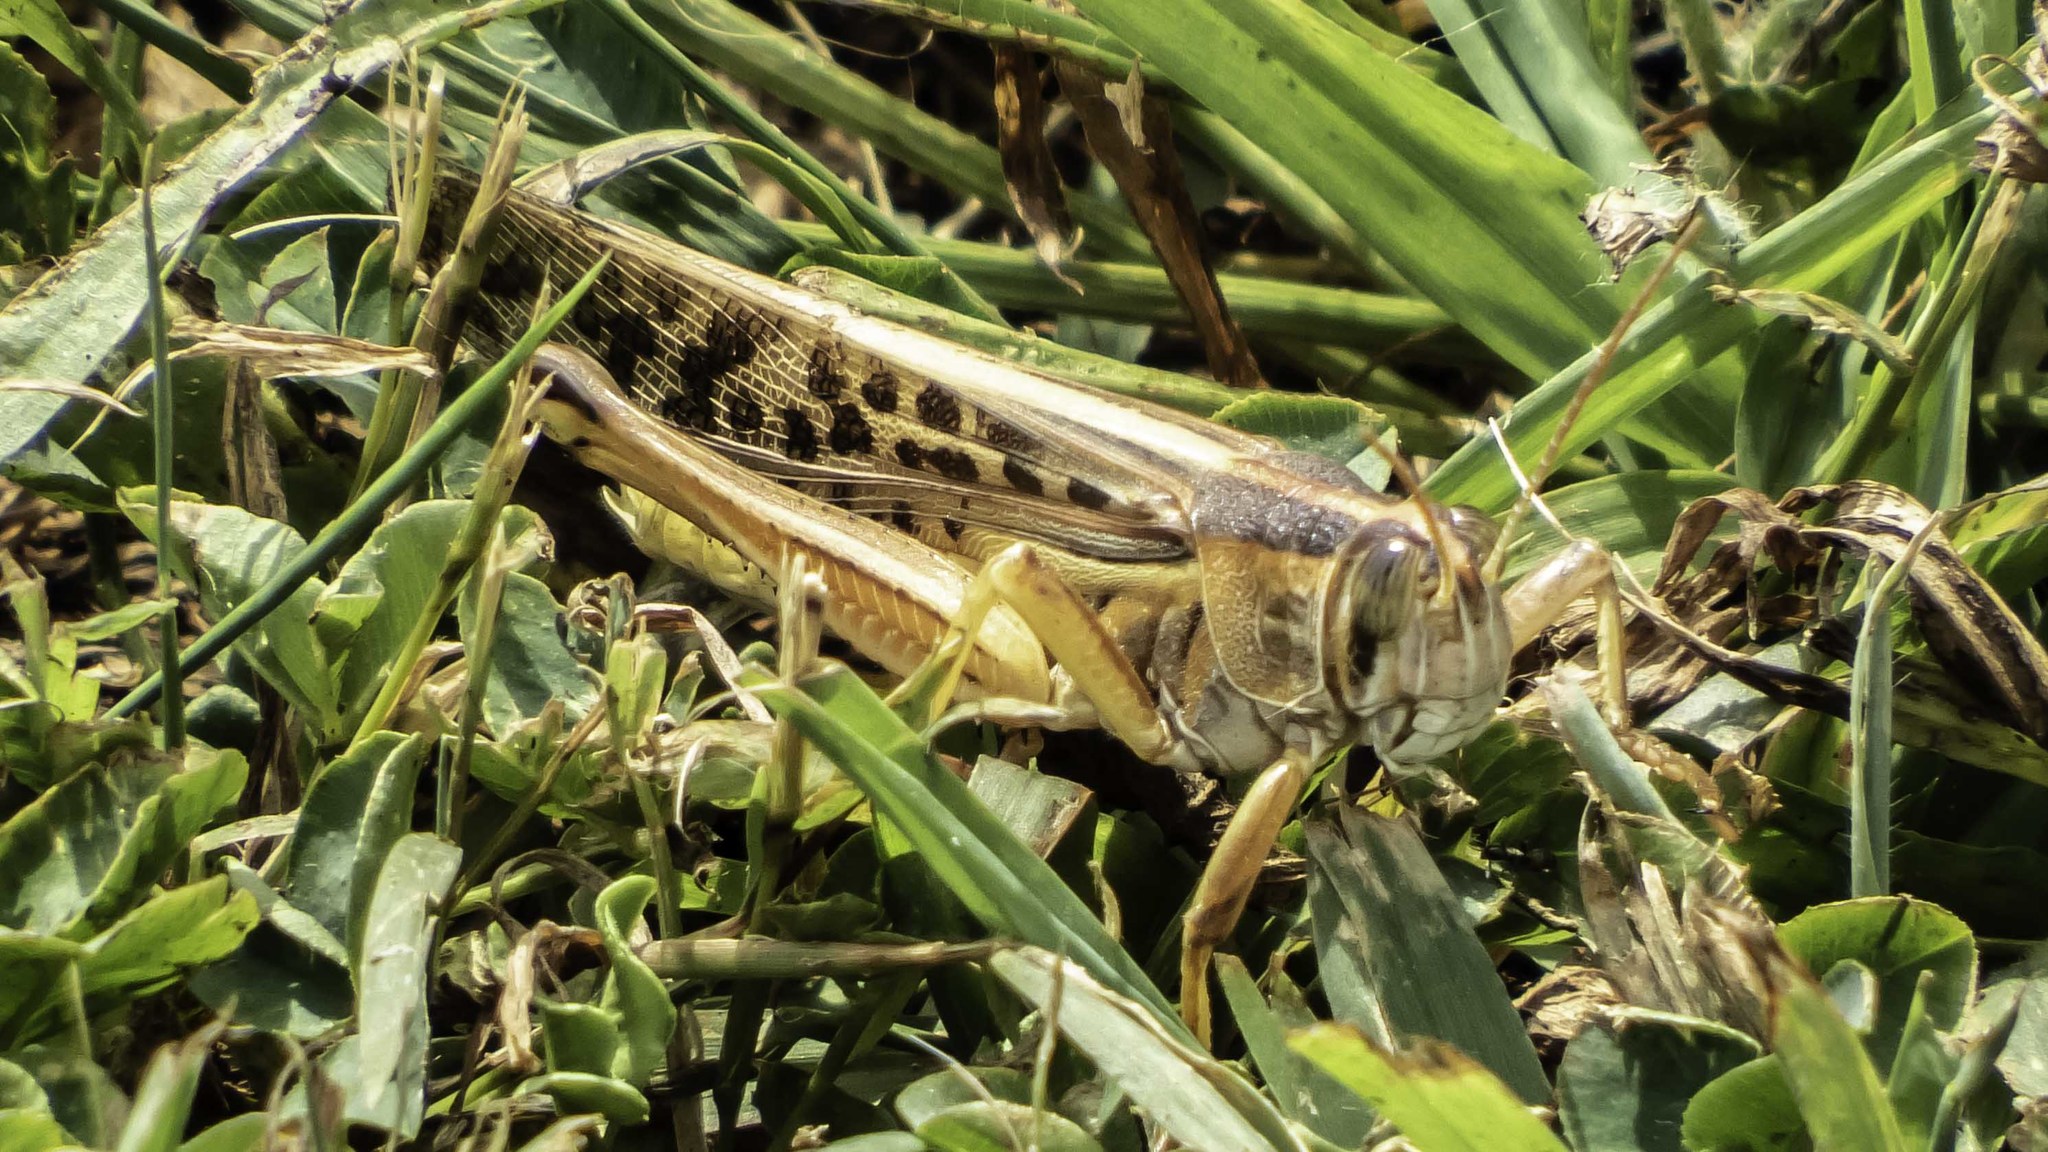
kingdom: Animalia
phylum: Arthropoda
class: Insecta
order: Orthoptera
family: Acrididae
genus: Schistocerca
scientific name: Schistocerca americana
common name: American bird locust
